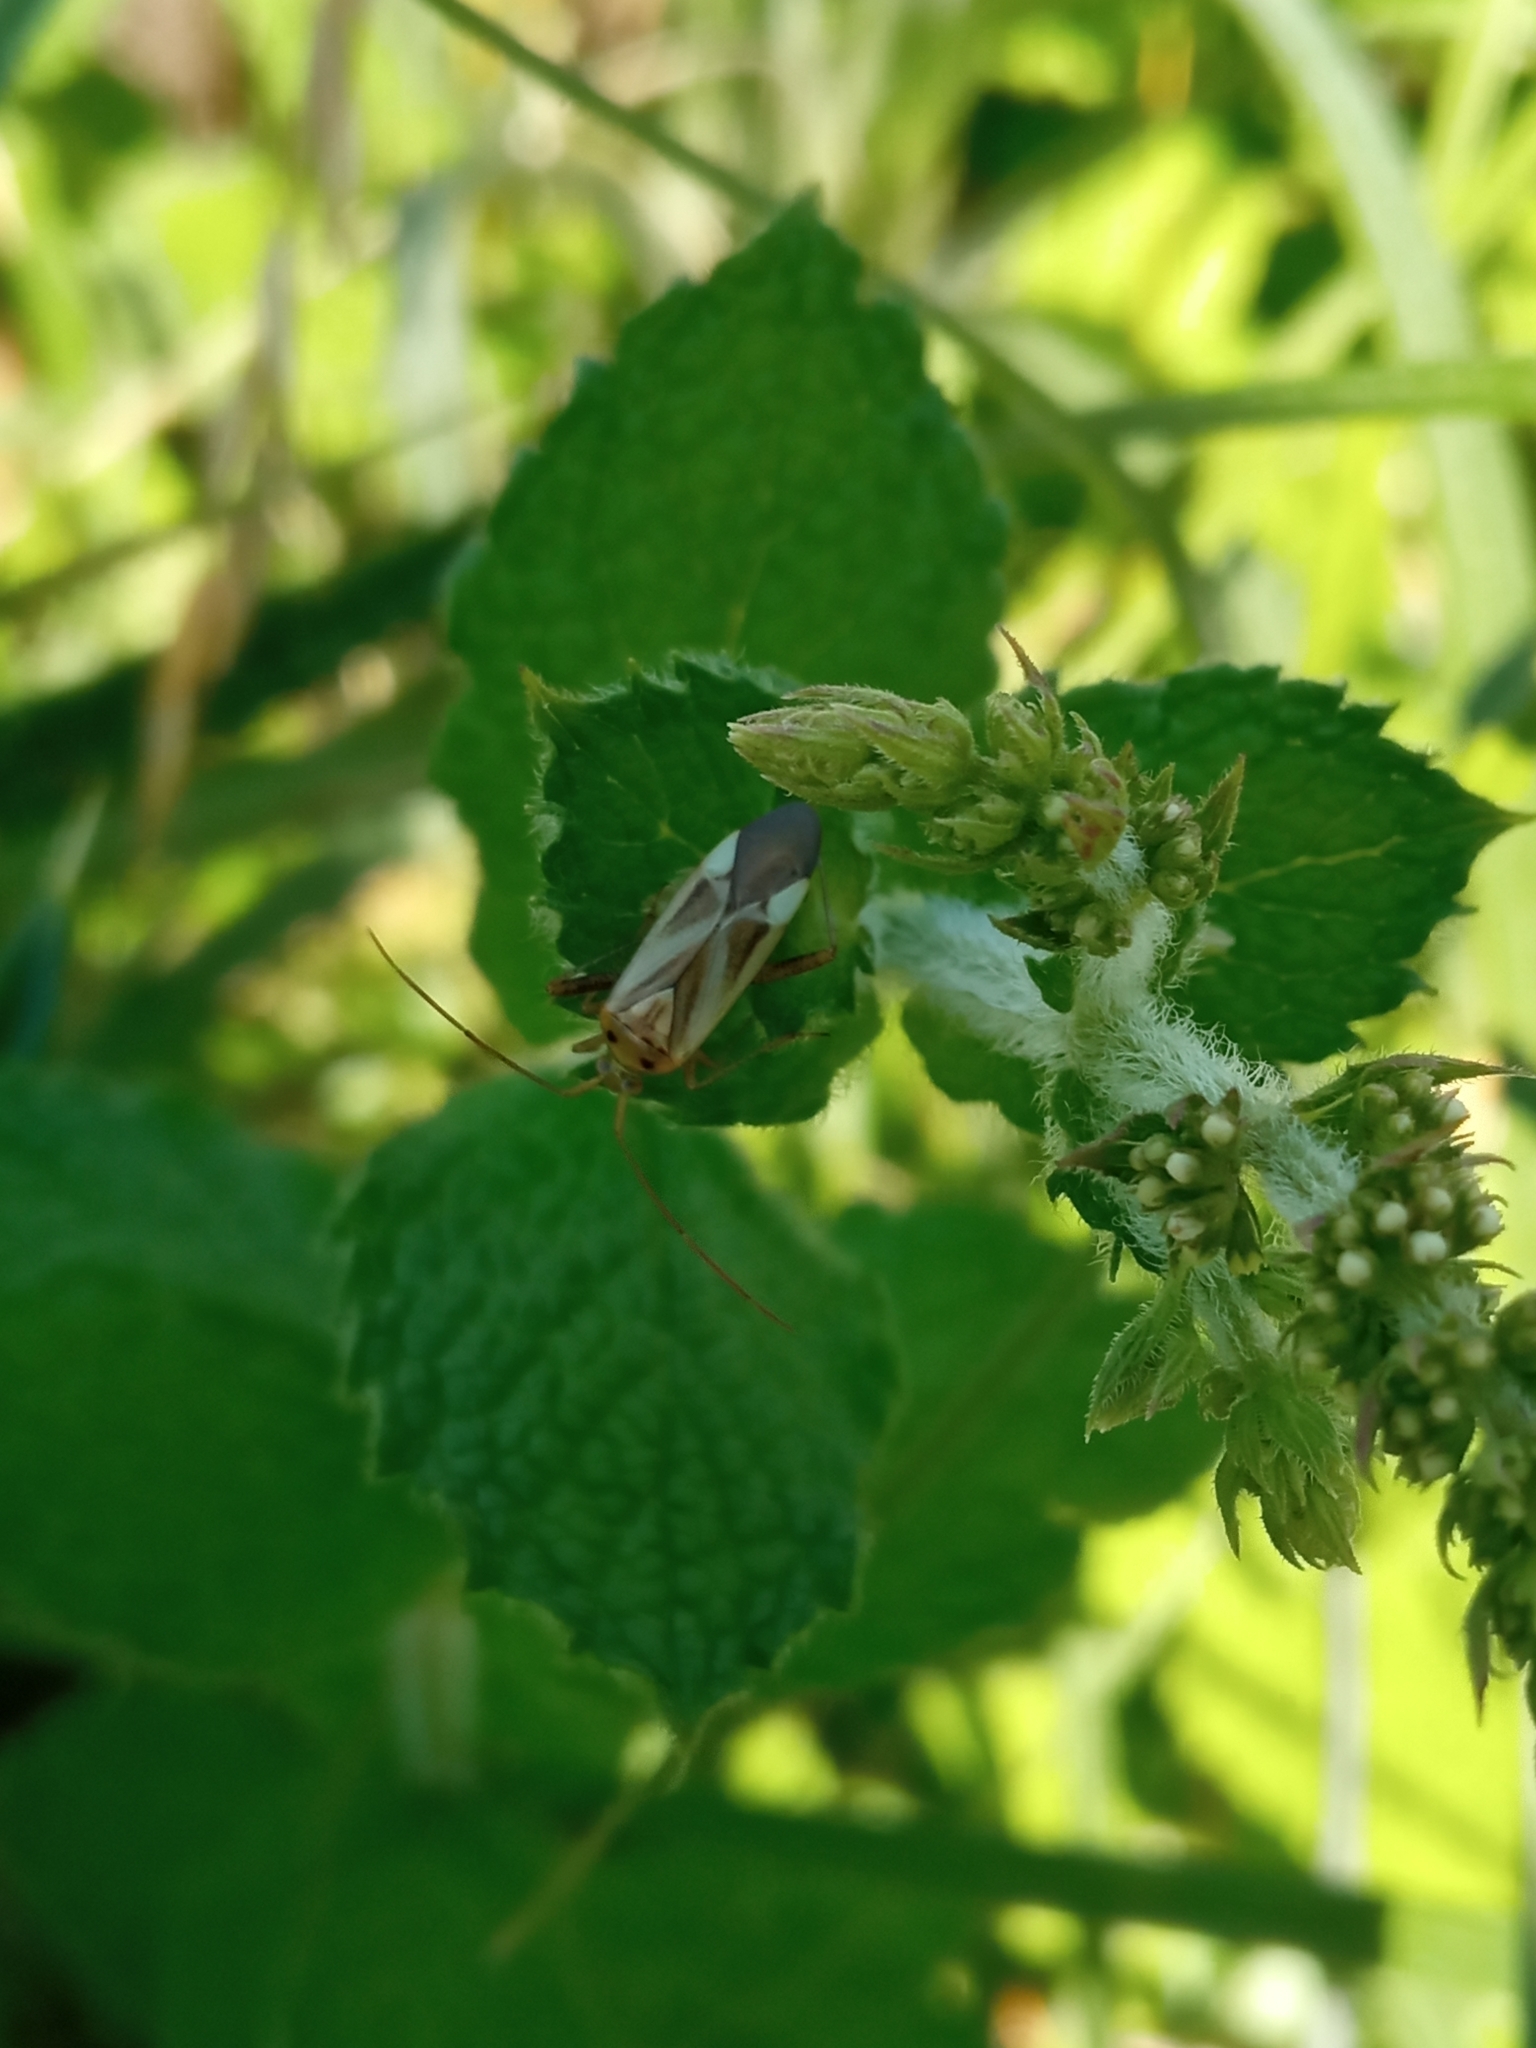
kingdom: Animalia
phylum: Arthropoda
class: Insecta
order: Hemiptera
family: Miridae
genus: Adelphocoris
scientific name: Adelphocoris lineolatus
